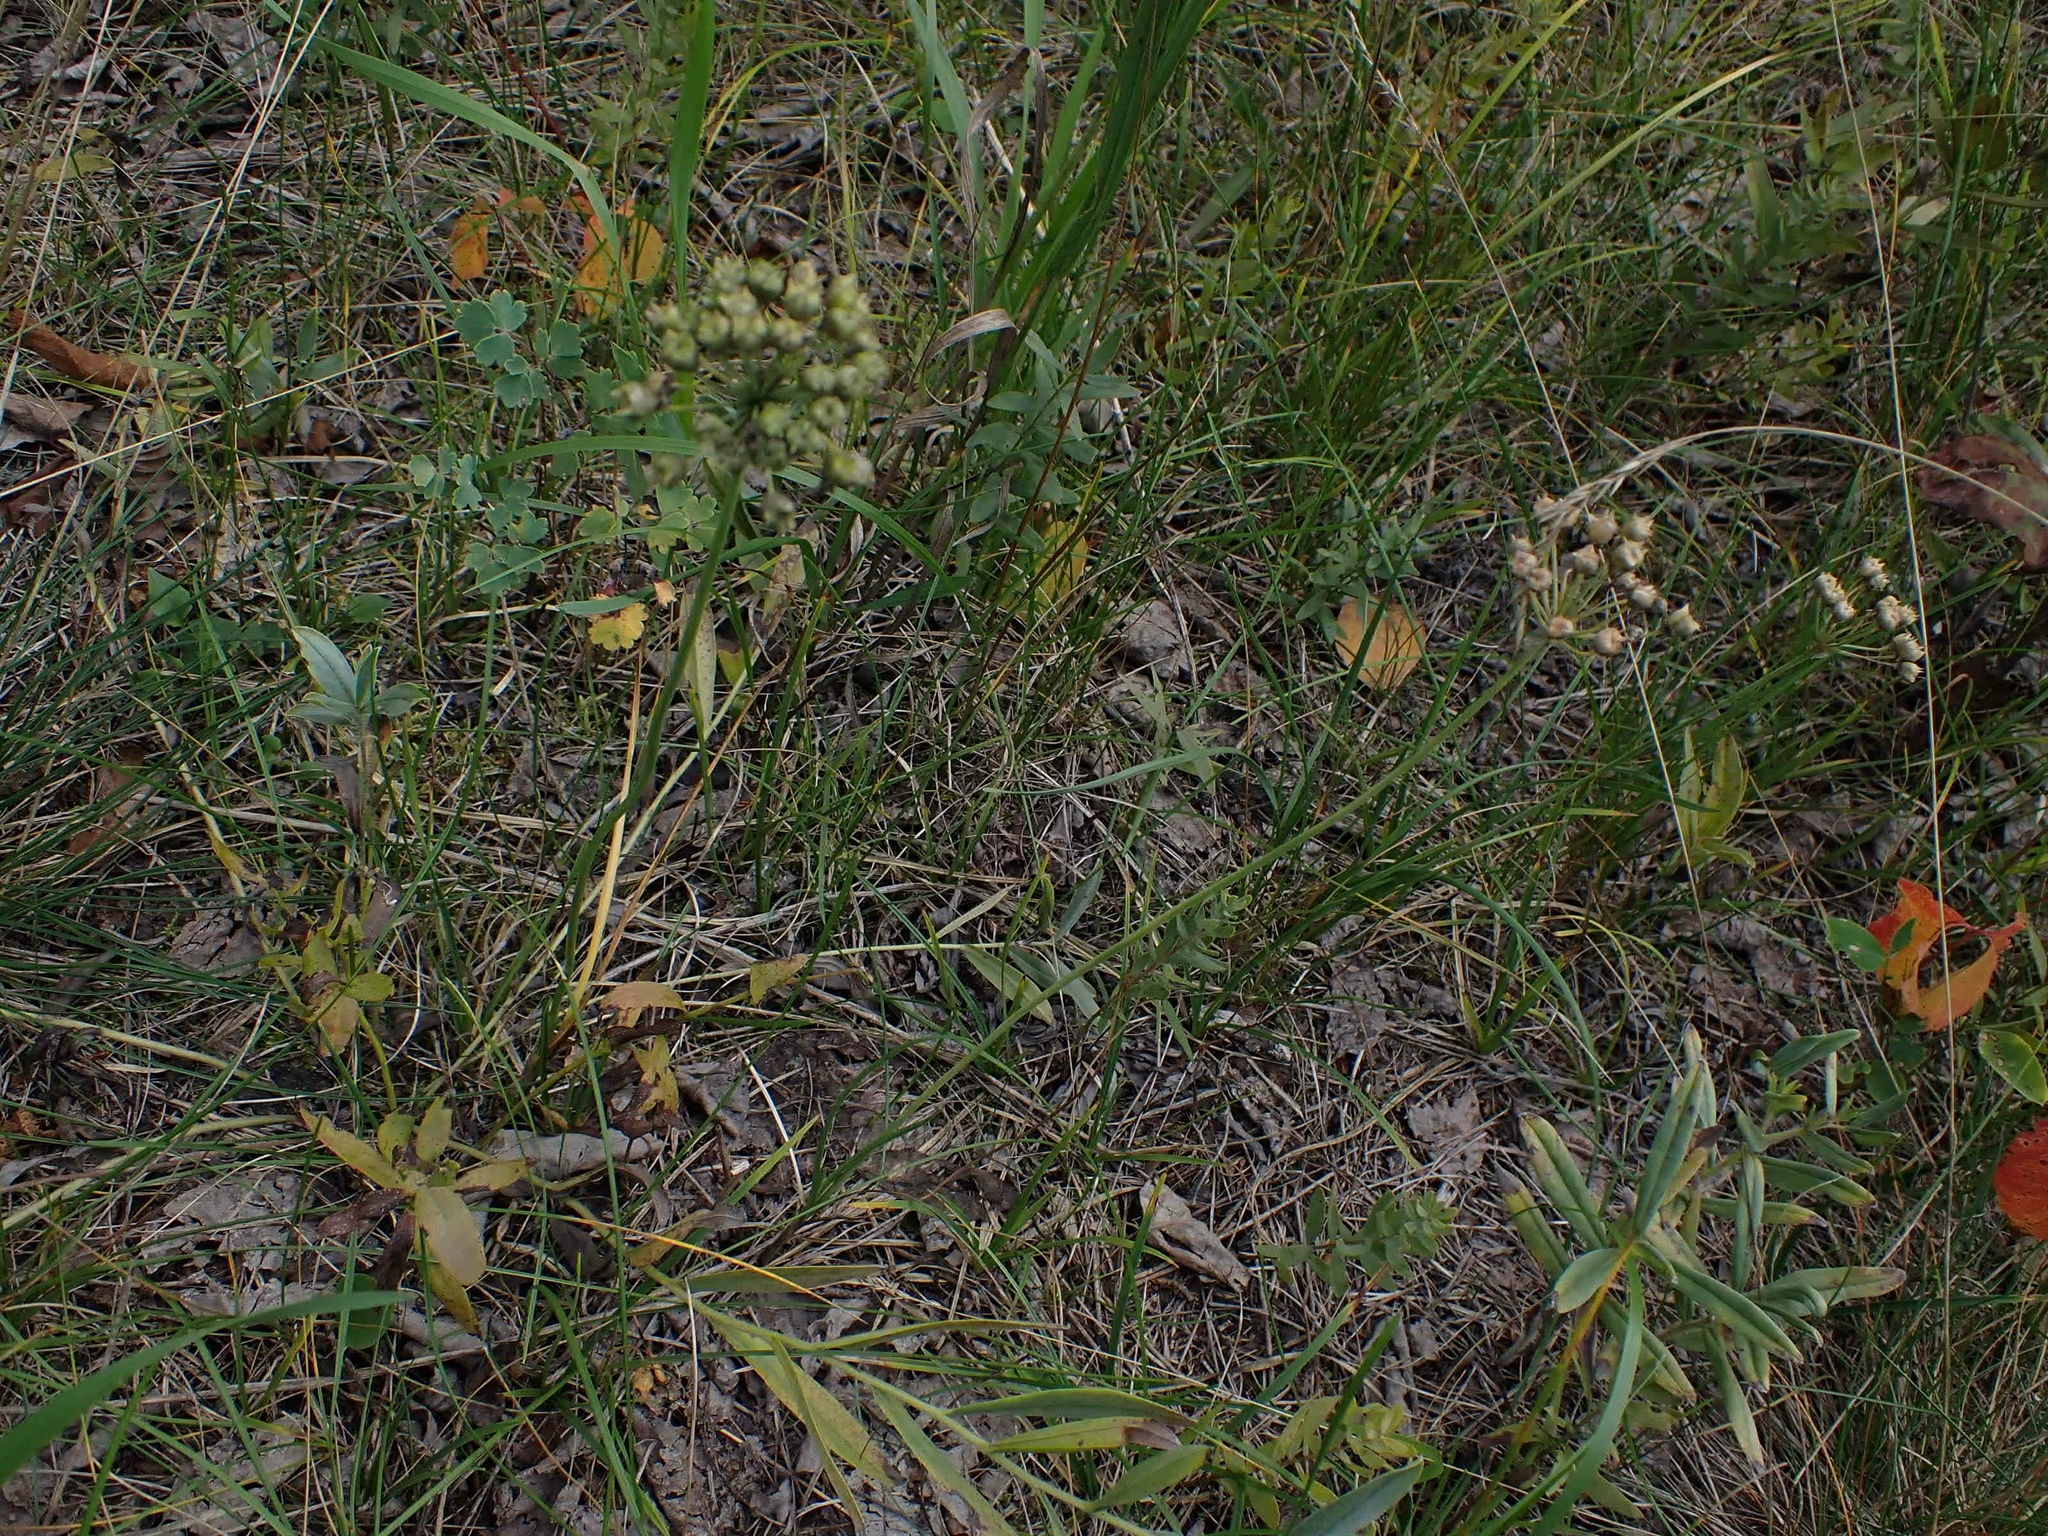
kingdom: Plantae
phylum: Tracheophyta
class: Liliopsida
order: Asparagales
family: Amaryllidaceae
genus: Allium
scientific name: Allium stellatum
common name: Autumn onion
